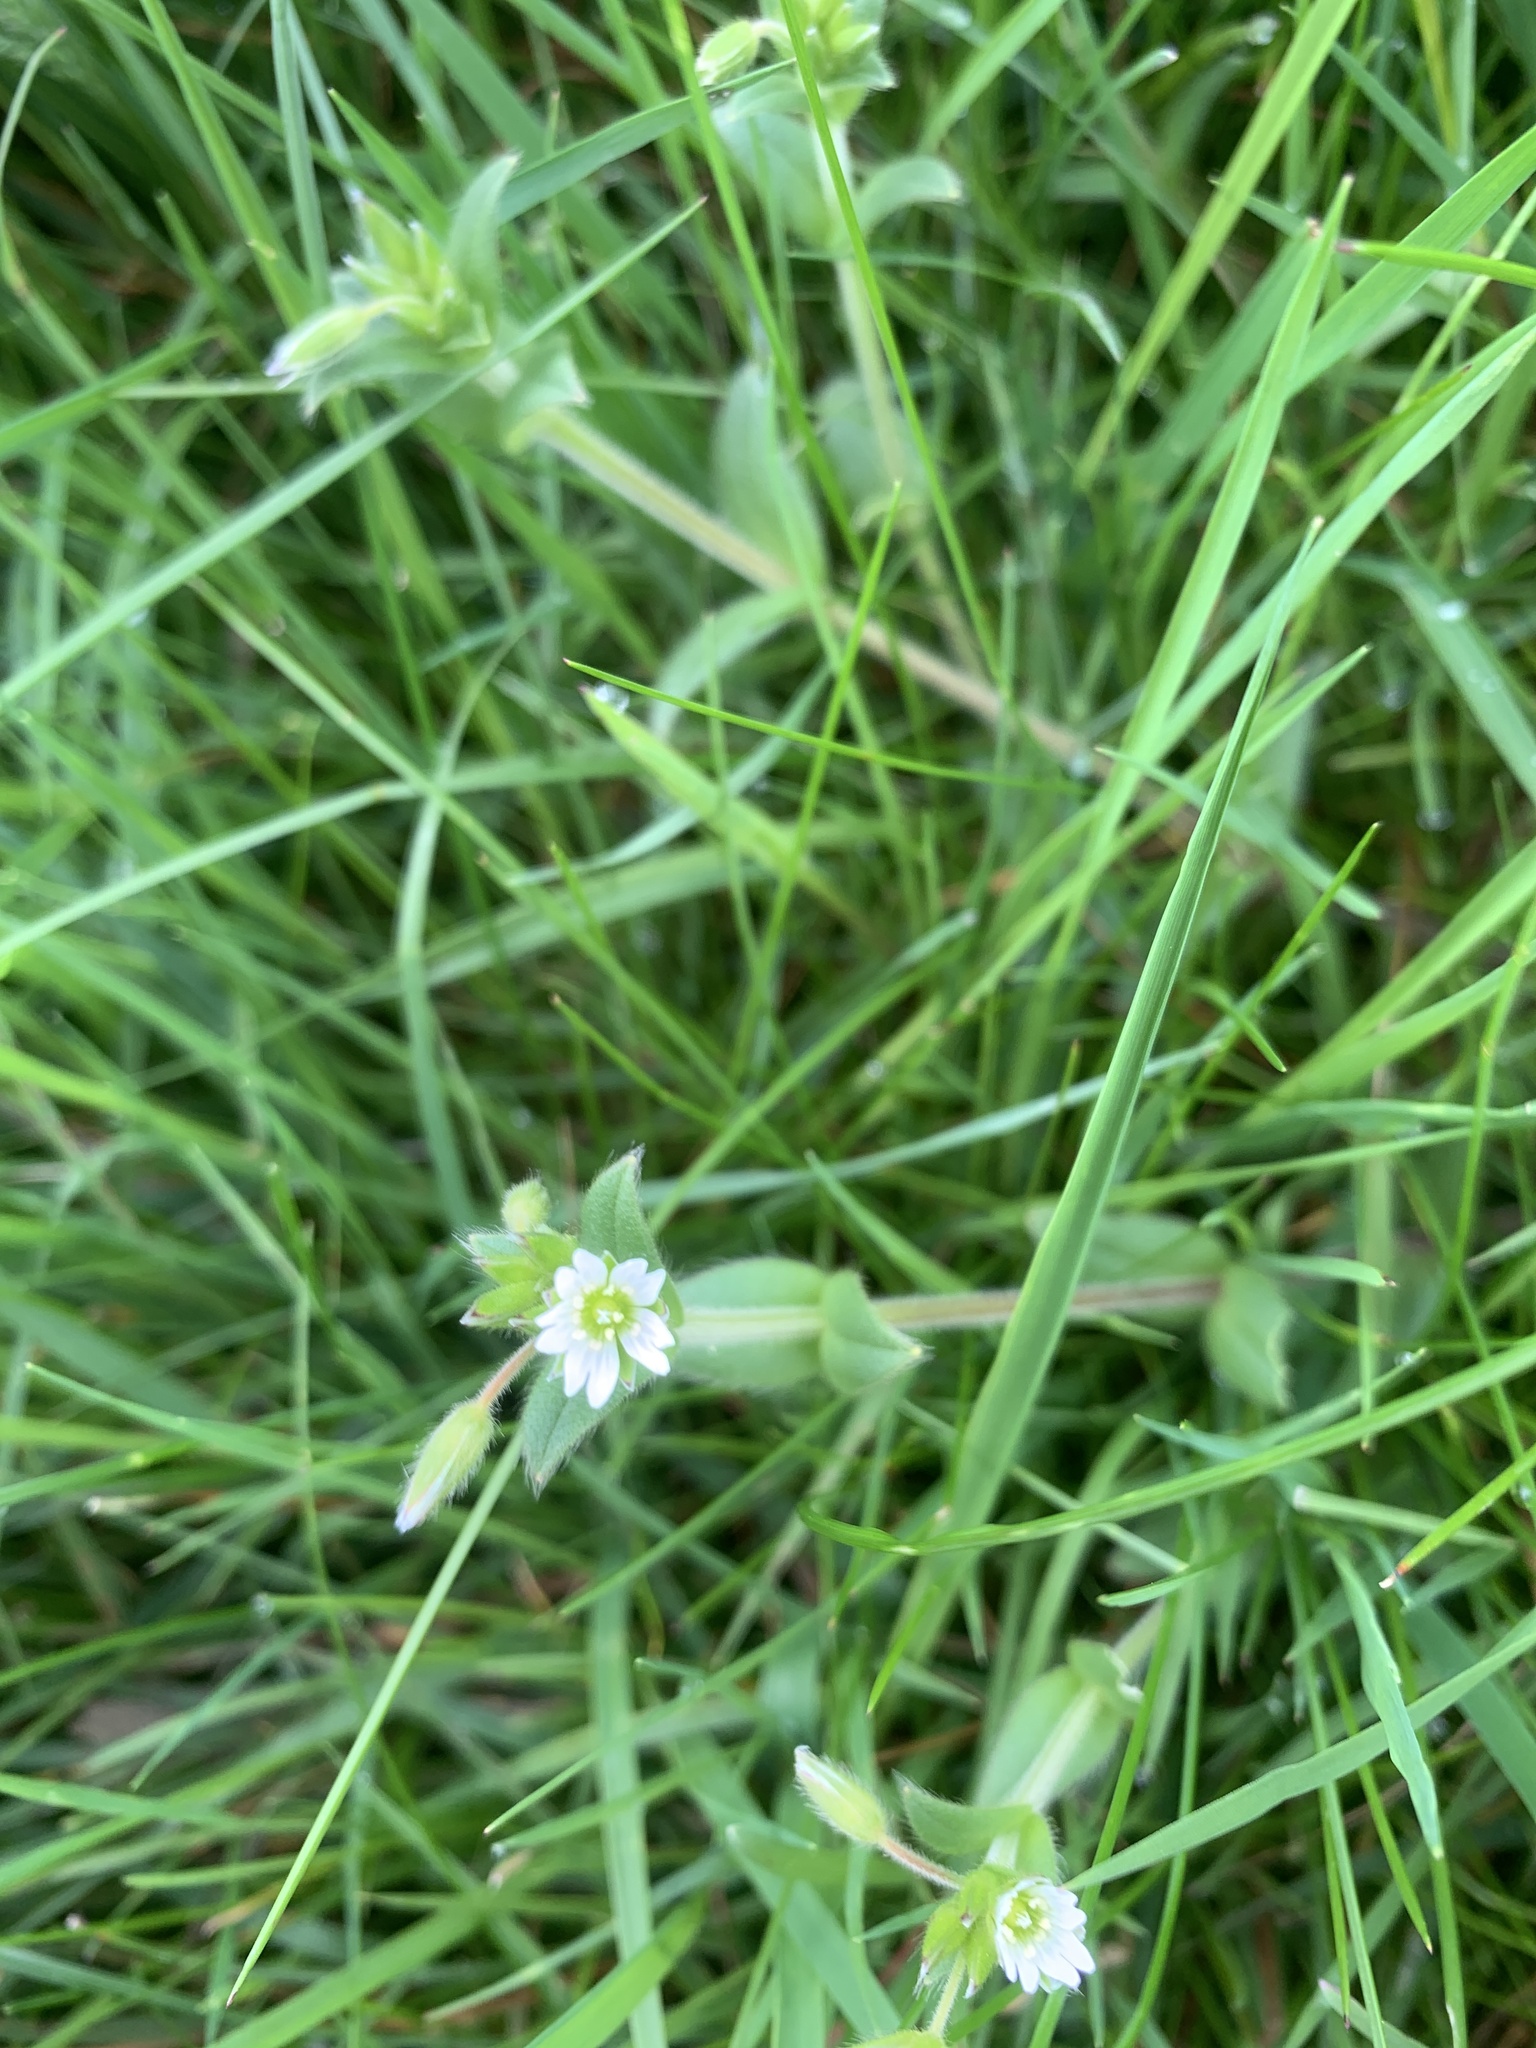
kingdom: Plantae
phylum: Tracheophyta
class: Magnoliopsida
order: Caryophyllales
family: Caryophyllaceae
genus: Cerastium
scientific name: Cerastium fontanum
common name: Common mouse-ear
